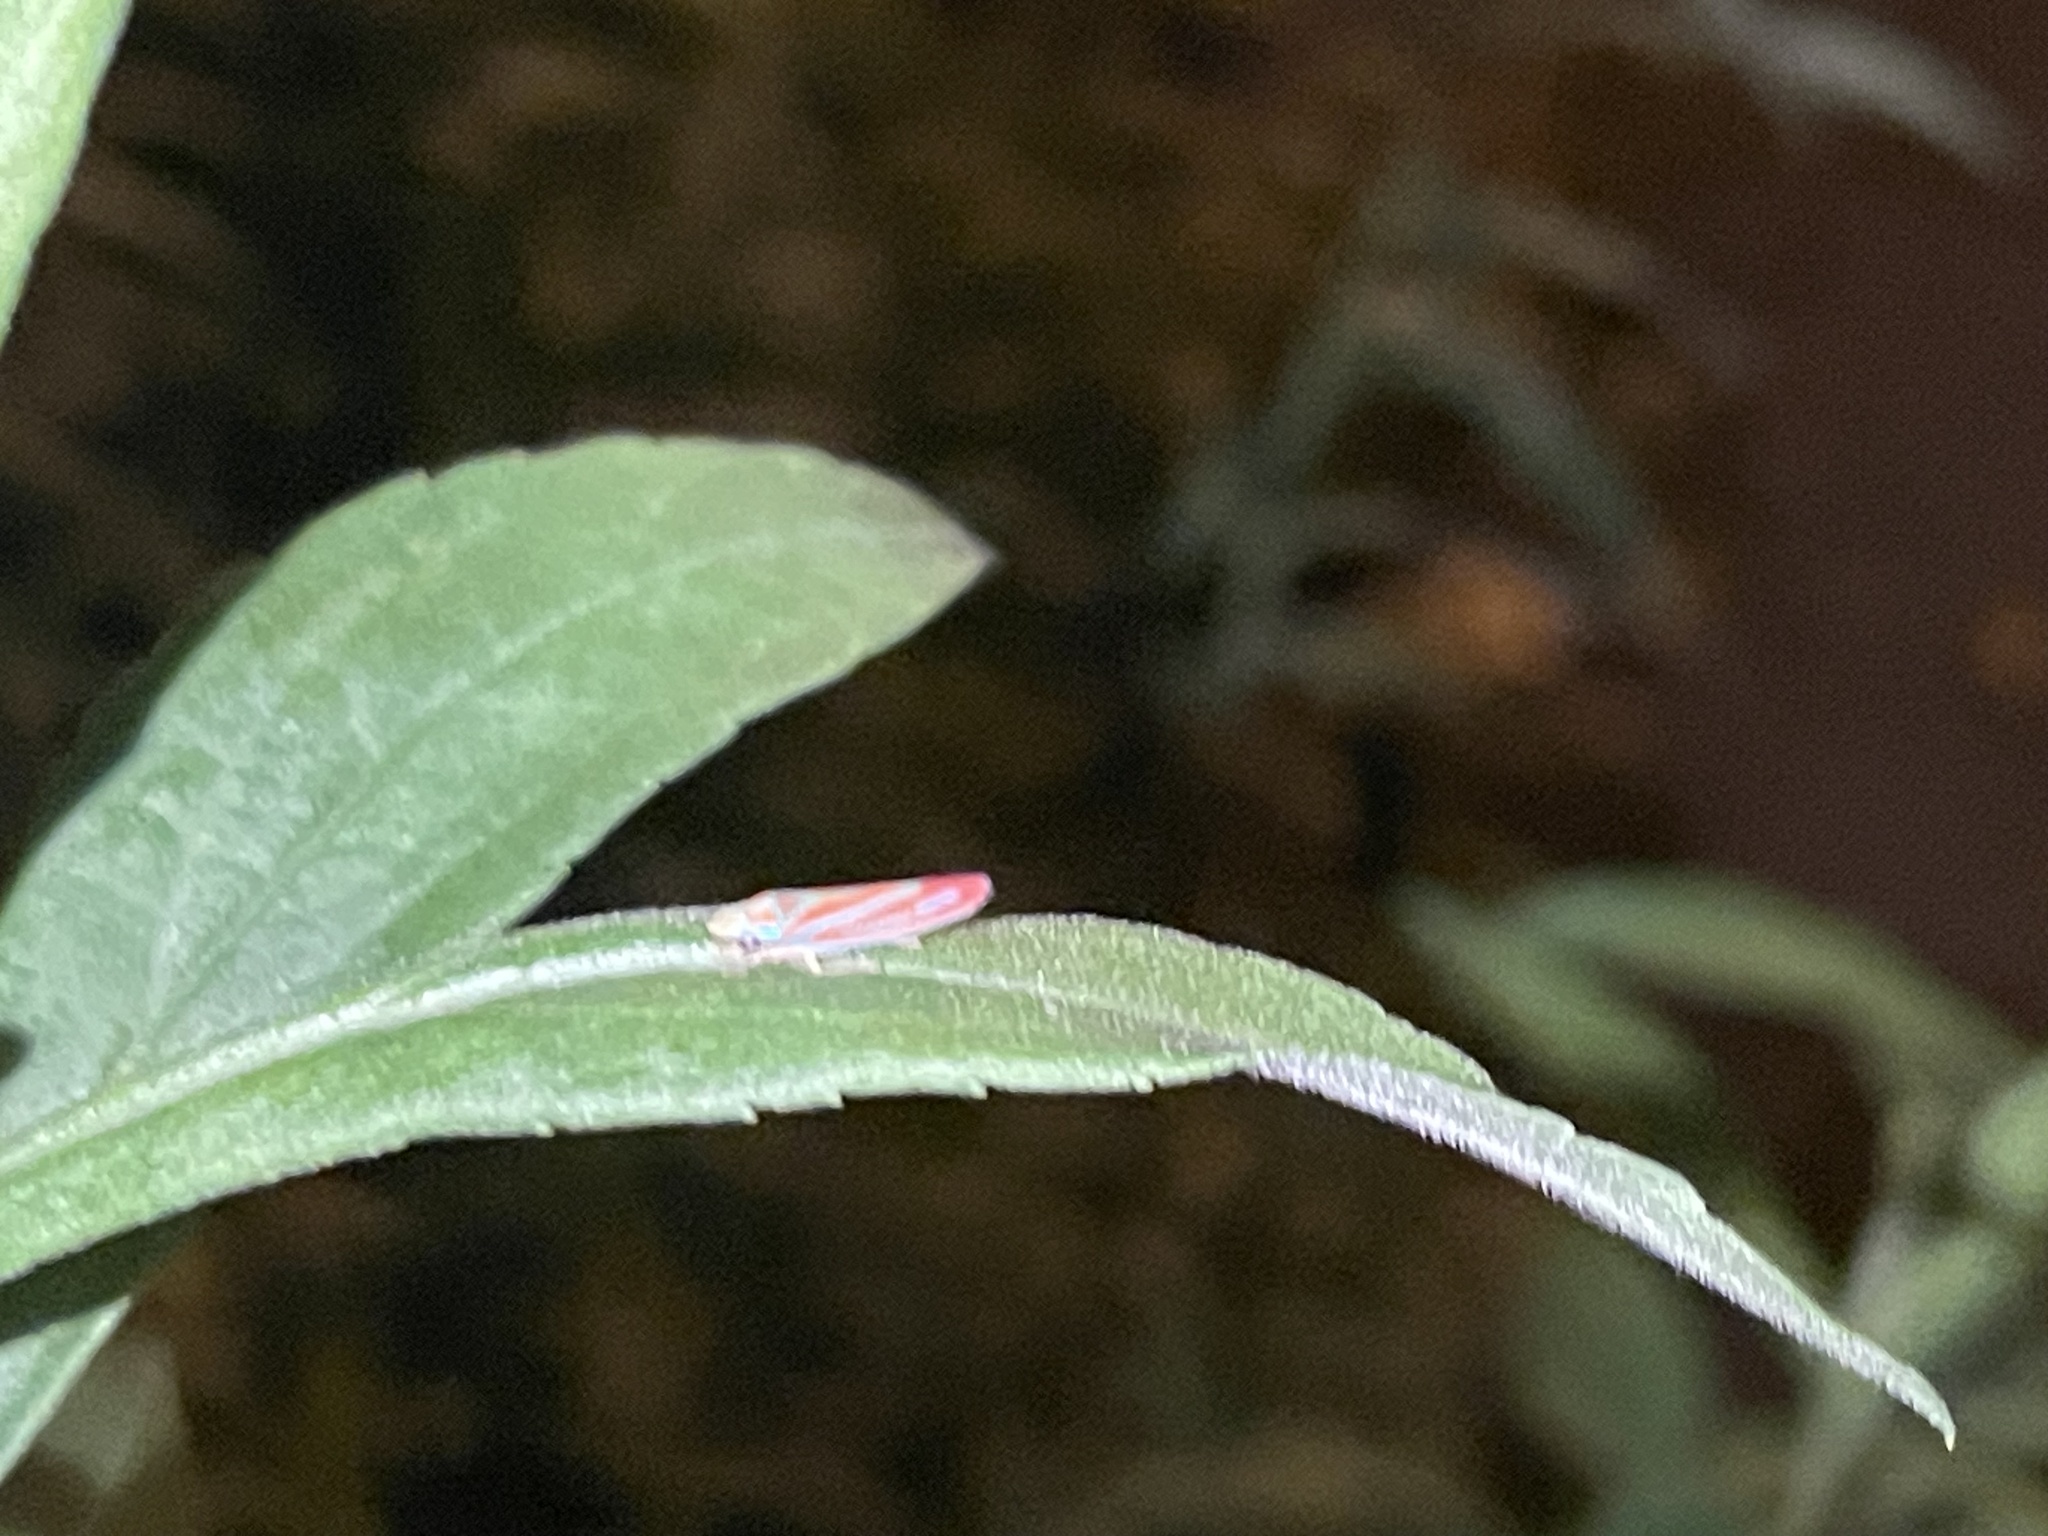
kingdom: Animalia
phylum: Arthropoda
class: Insecta
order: Hemiptera
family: Cicadellidae
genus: Graphocephala
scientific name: Graphocephala coccinea
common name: Candy-striped leafhopper
